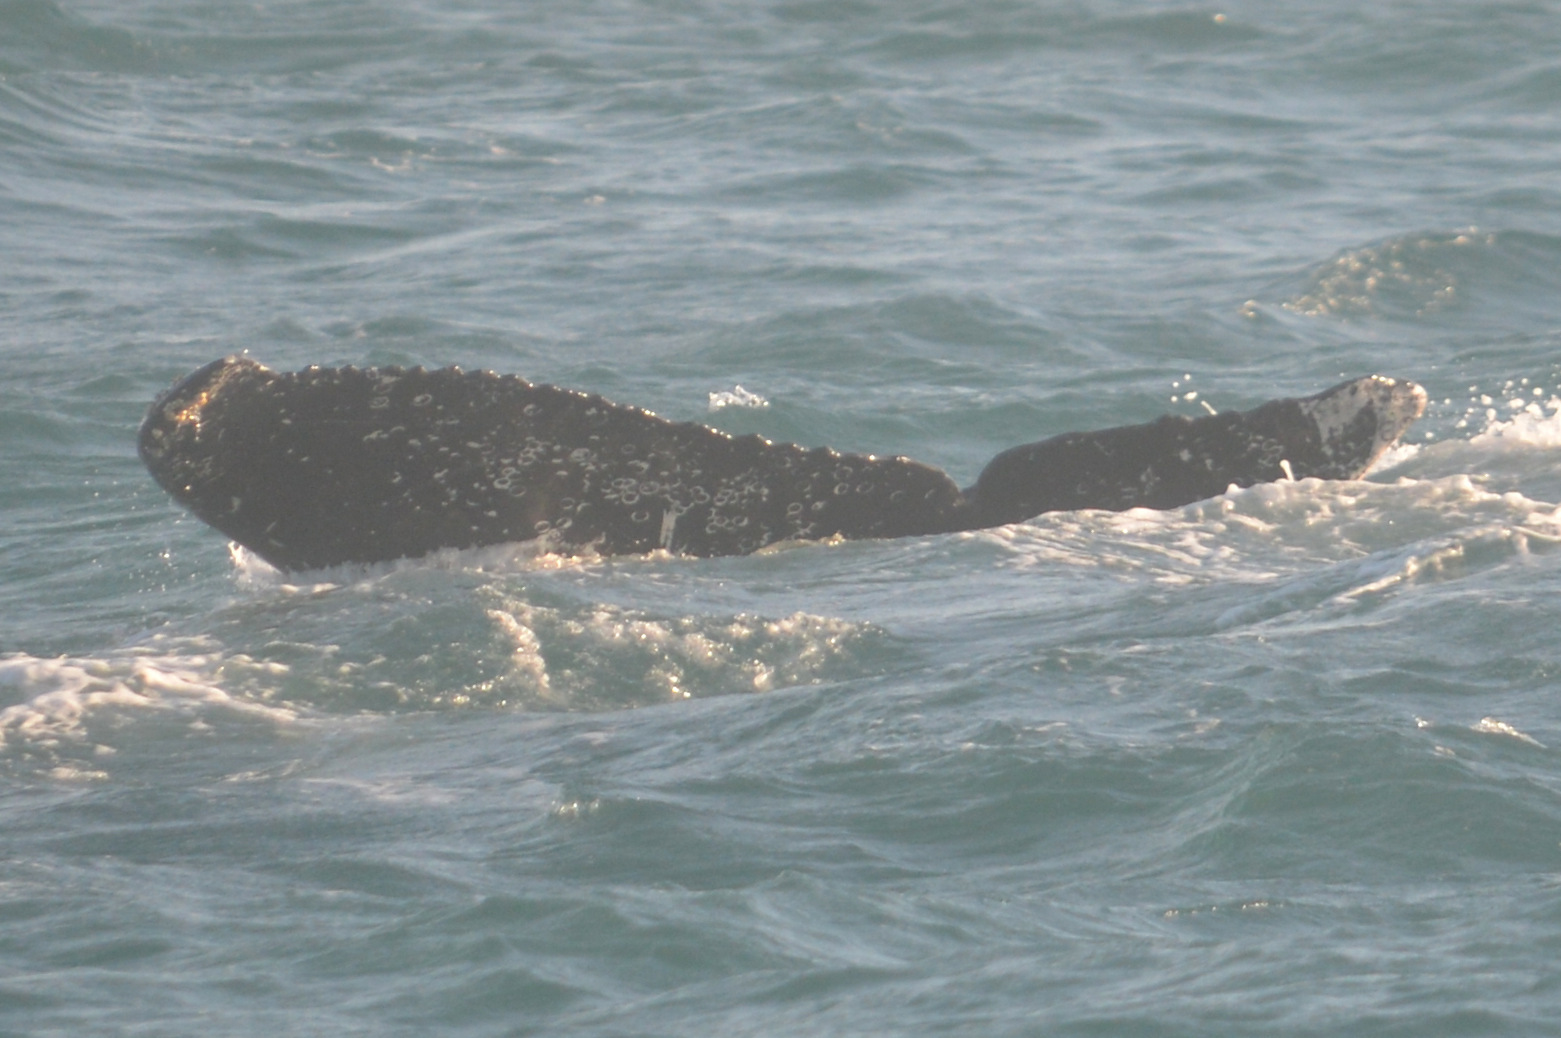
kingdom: Animalia
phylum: Chordata
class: Mammalia
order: Cetacea
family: Balaenopteridae
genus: Megaptera
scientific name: Megaptera novaeangliae
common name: Humpback whale
